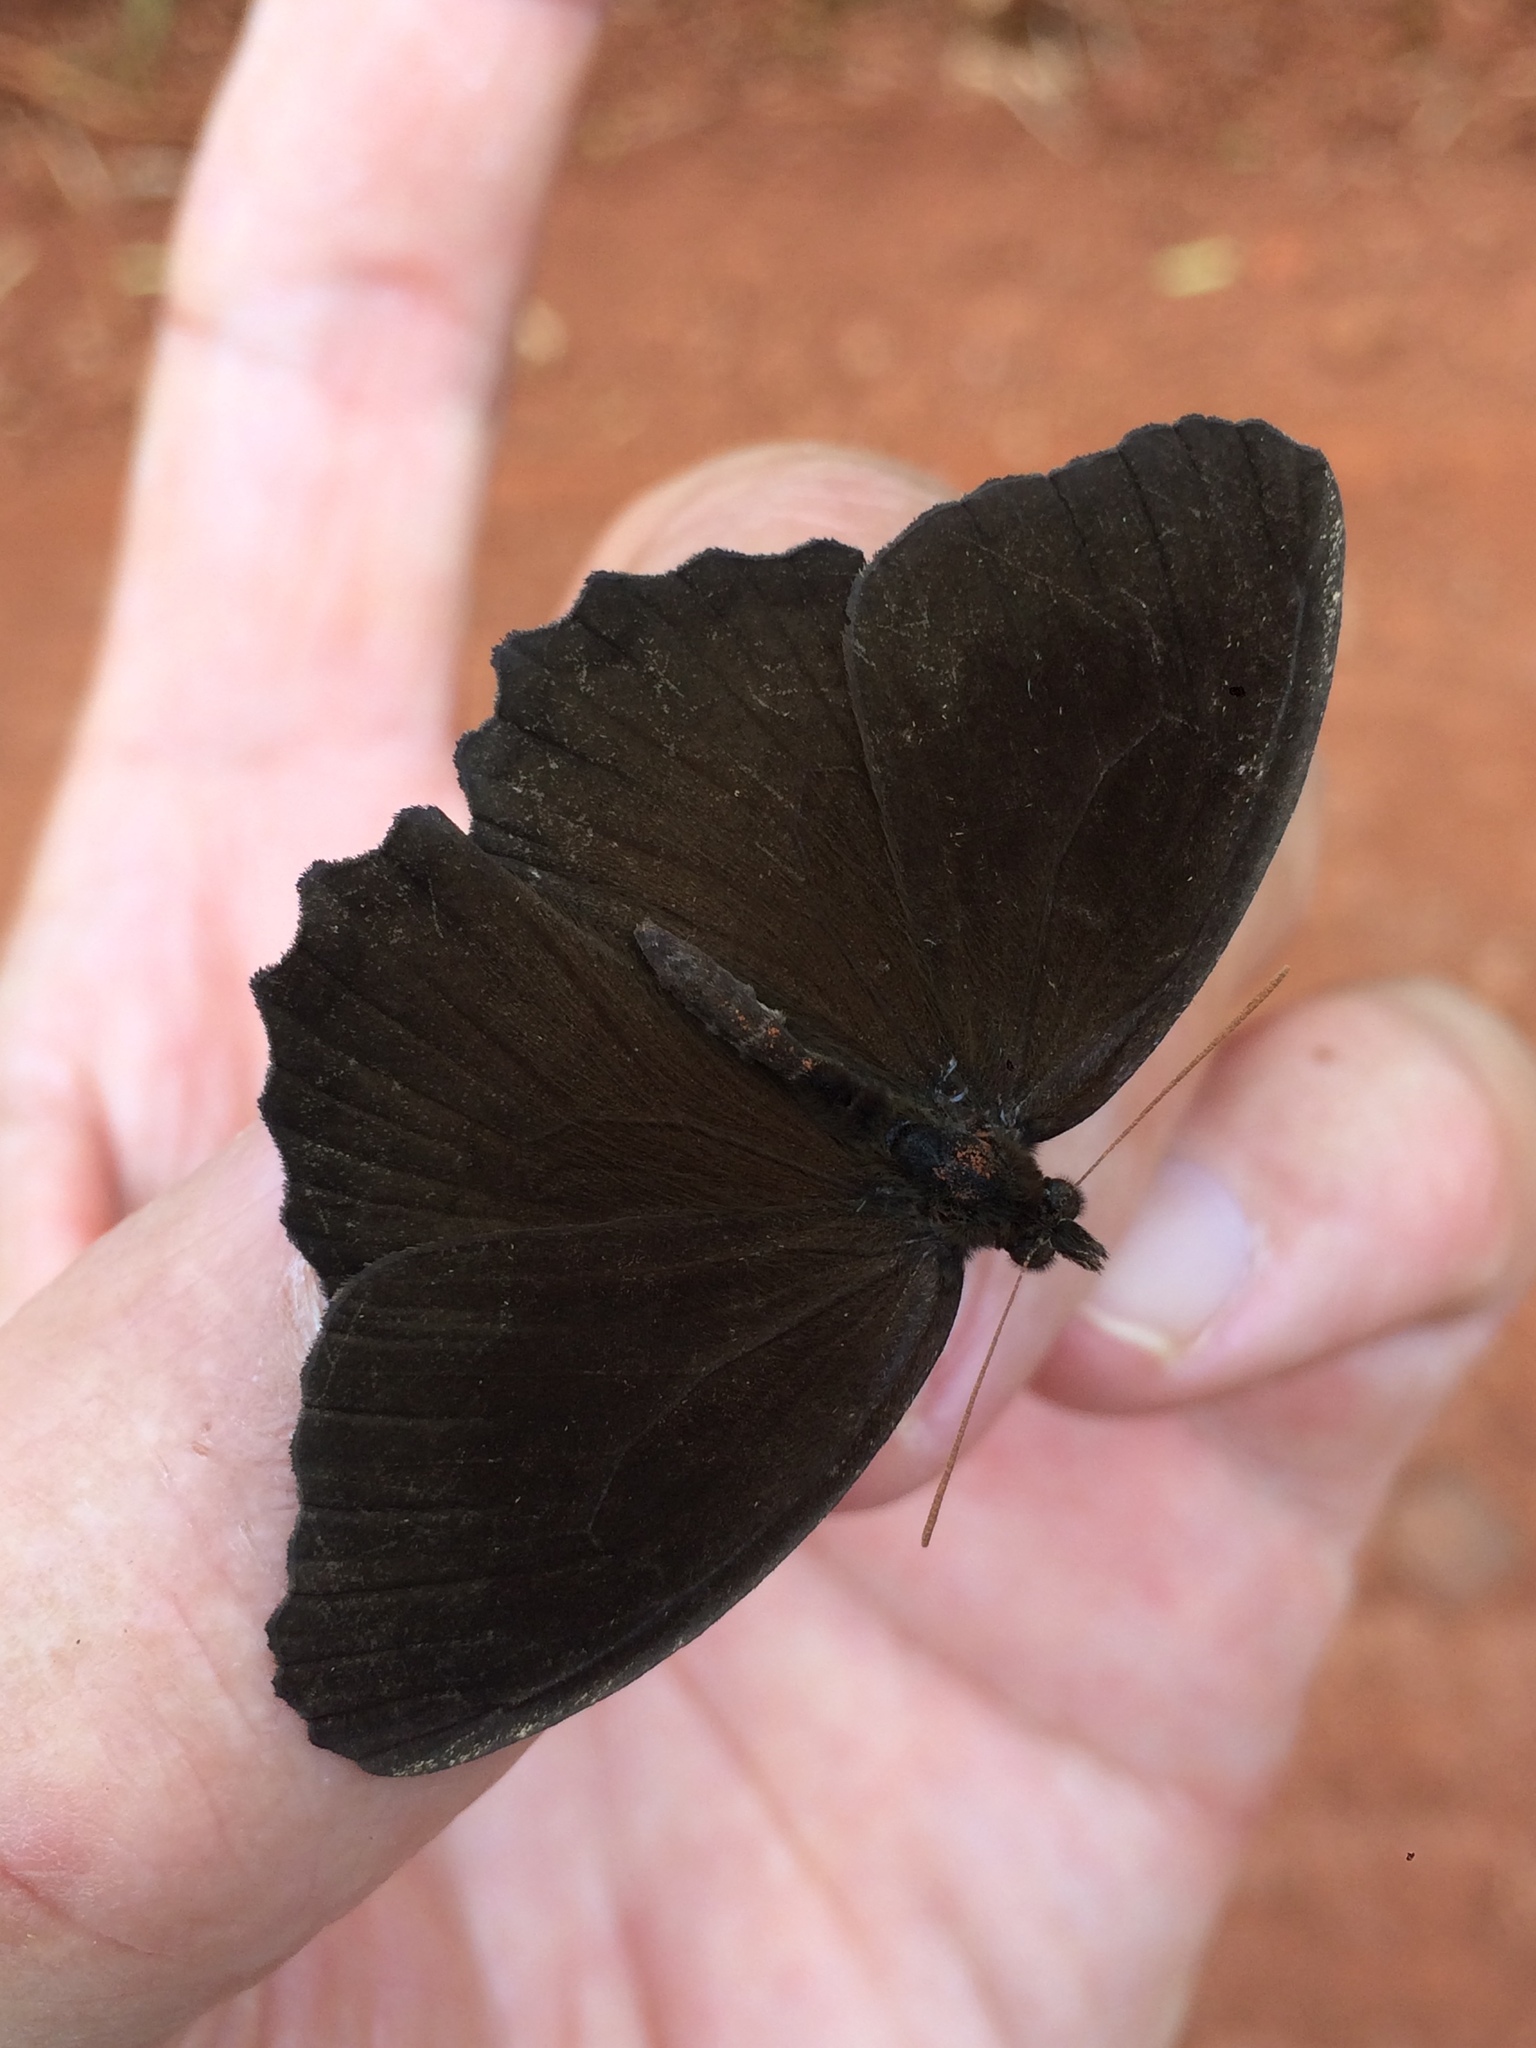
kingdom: Animalia
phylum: Arthropoda
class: Insecta
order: Lepidoptera
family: Nymphalidae
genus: Praepedaliodes
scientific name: Praepedaliodes phanias
